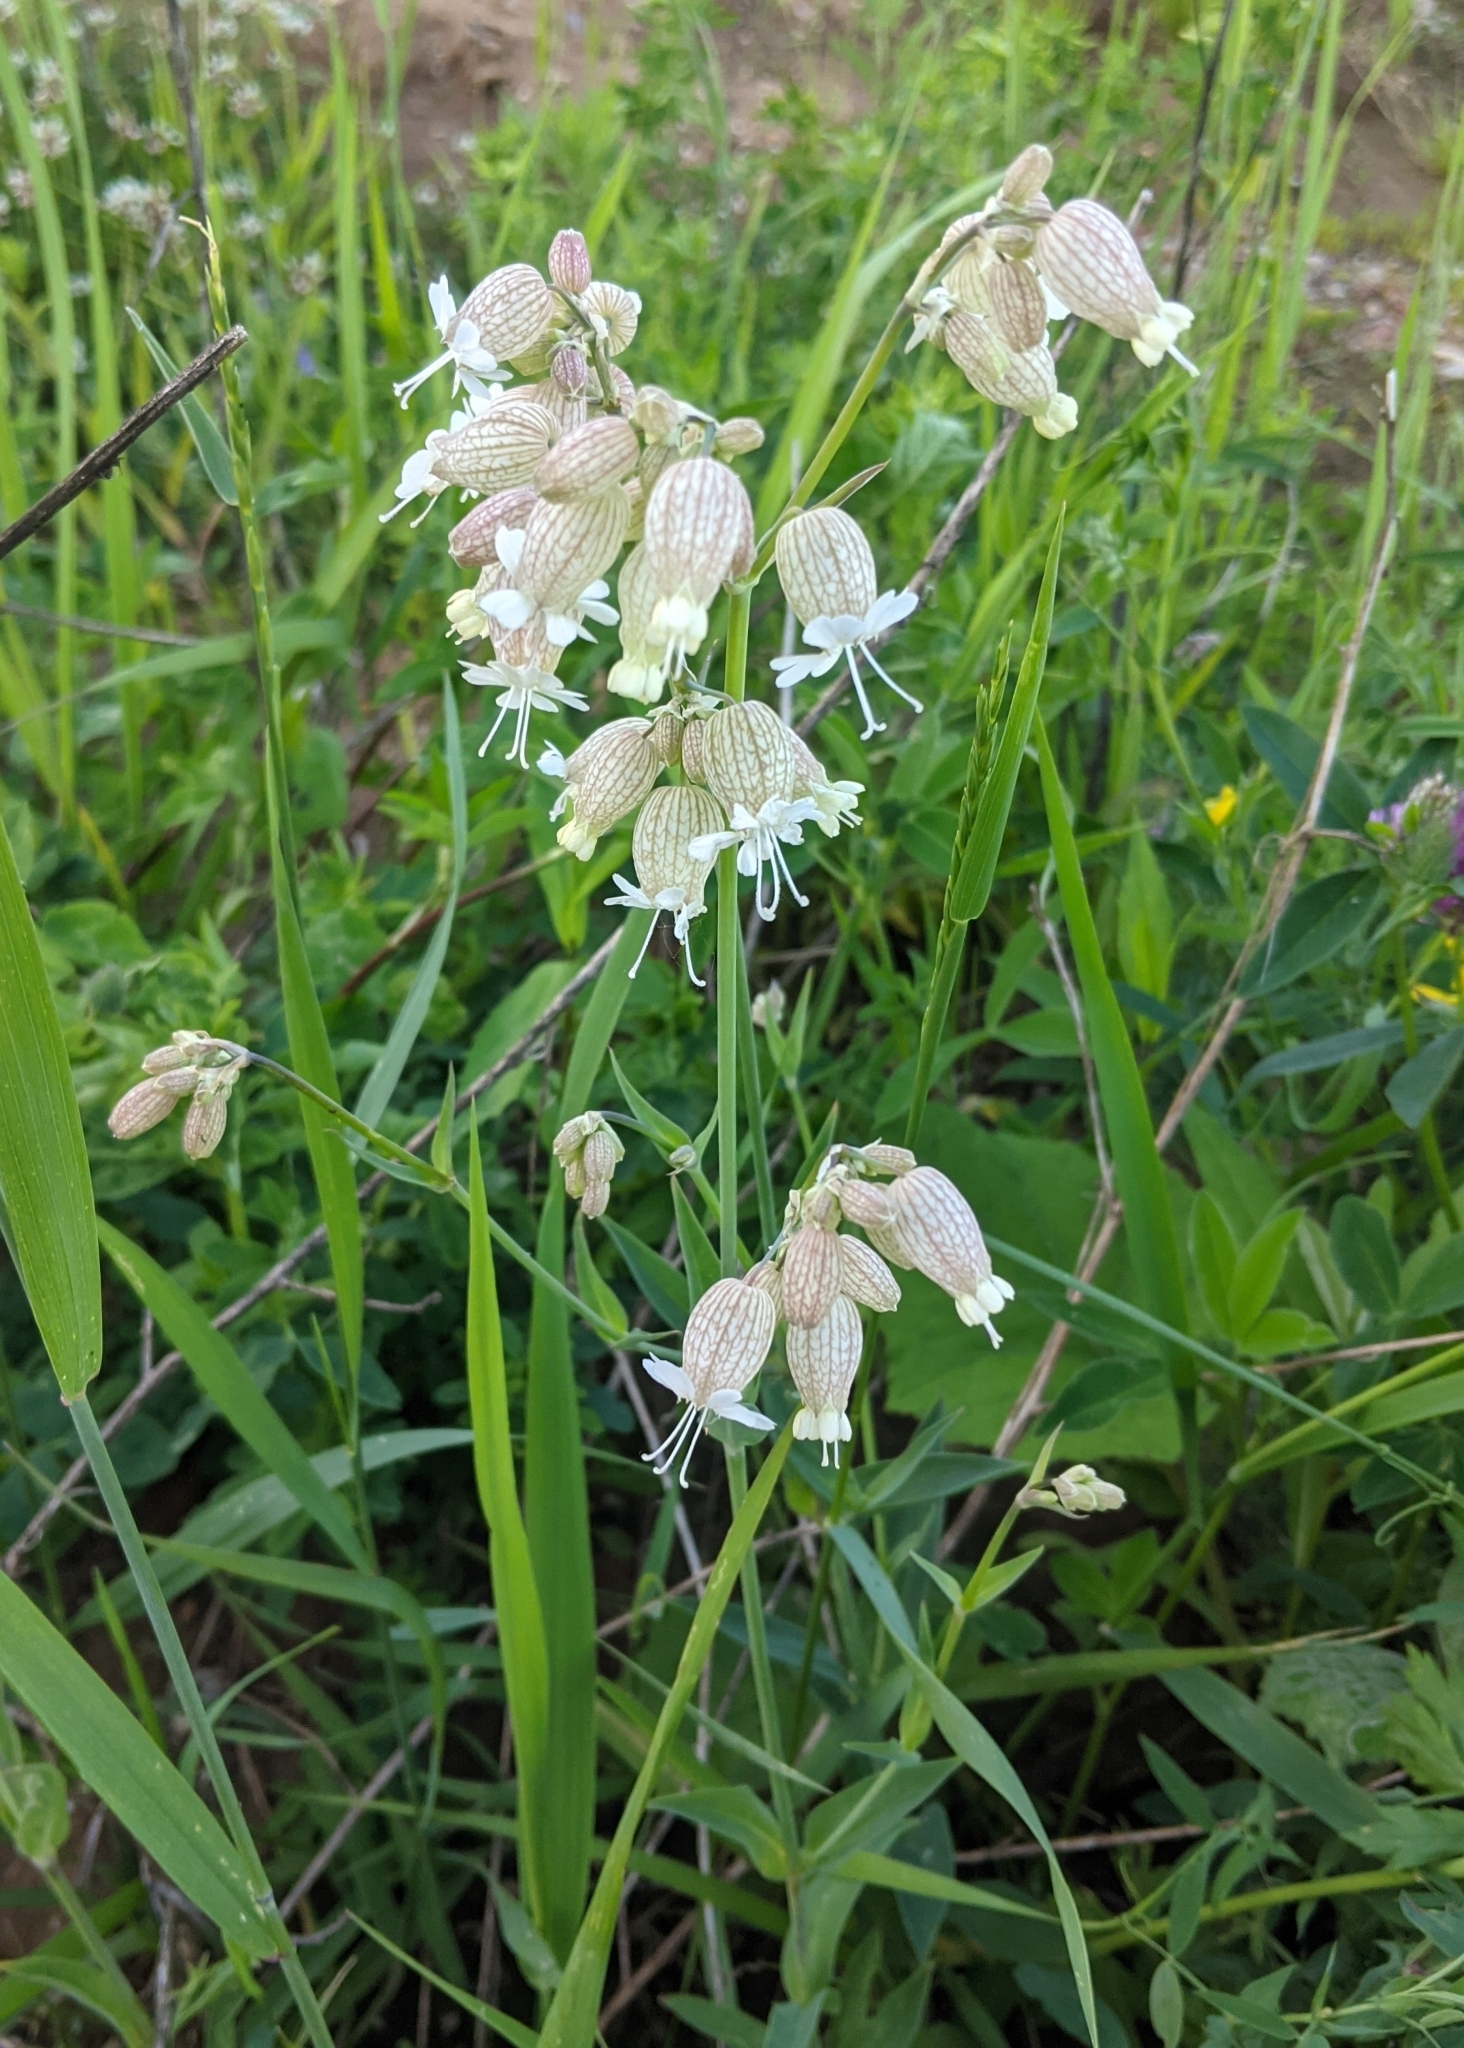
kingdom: Plantae
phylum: Tracheophyta
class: Magnoliopsida
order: Caryophyllales
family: Caryophyllaceae
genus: Silene
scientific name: Silene vulgaris
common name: Bladder campion
